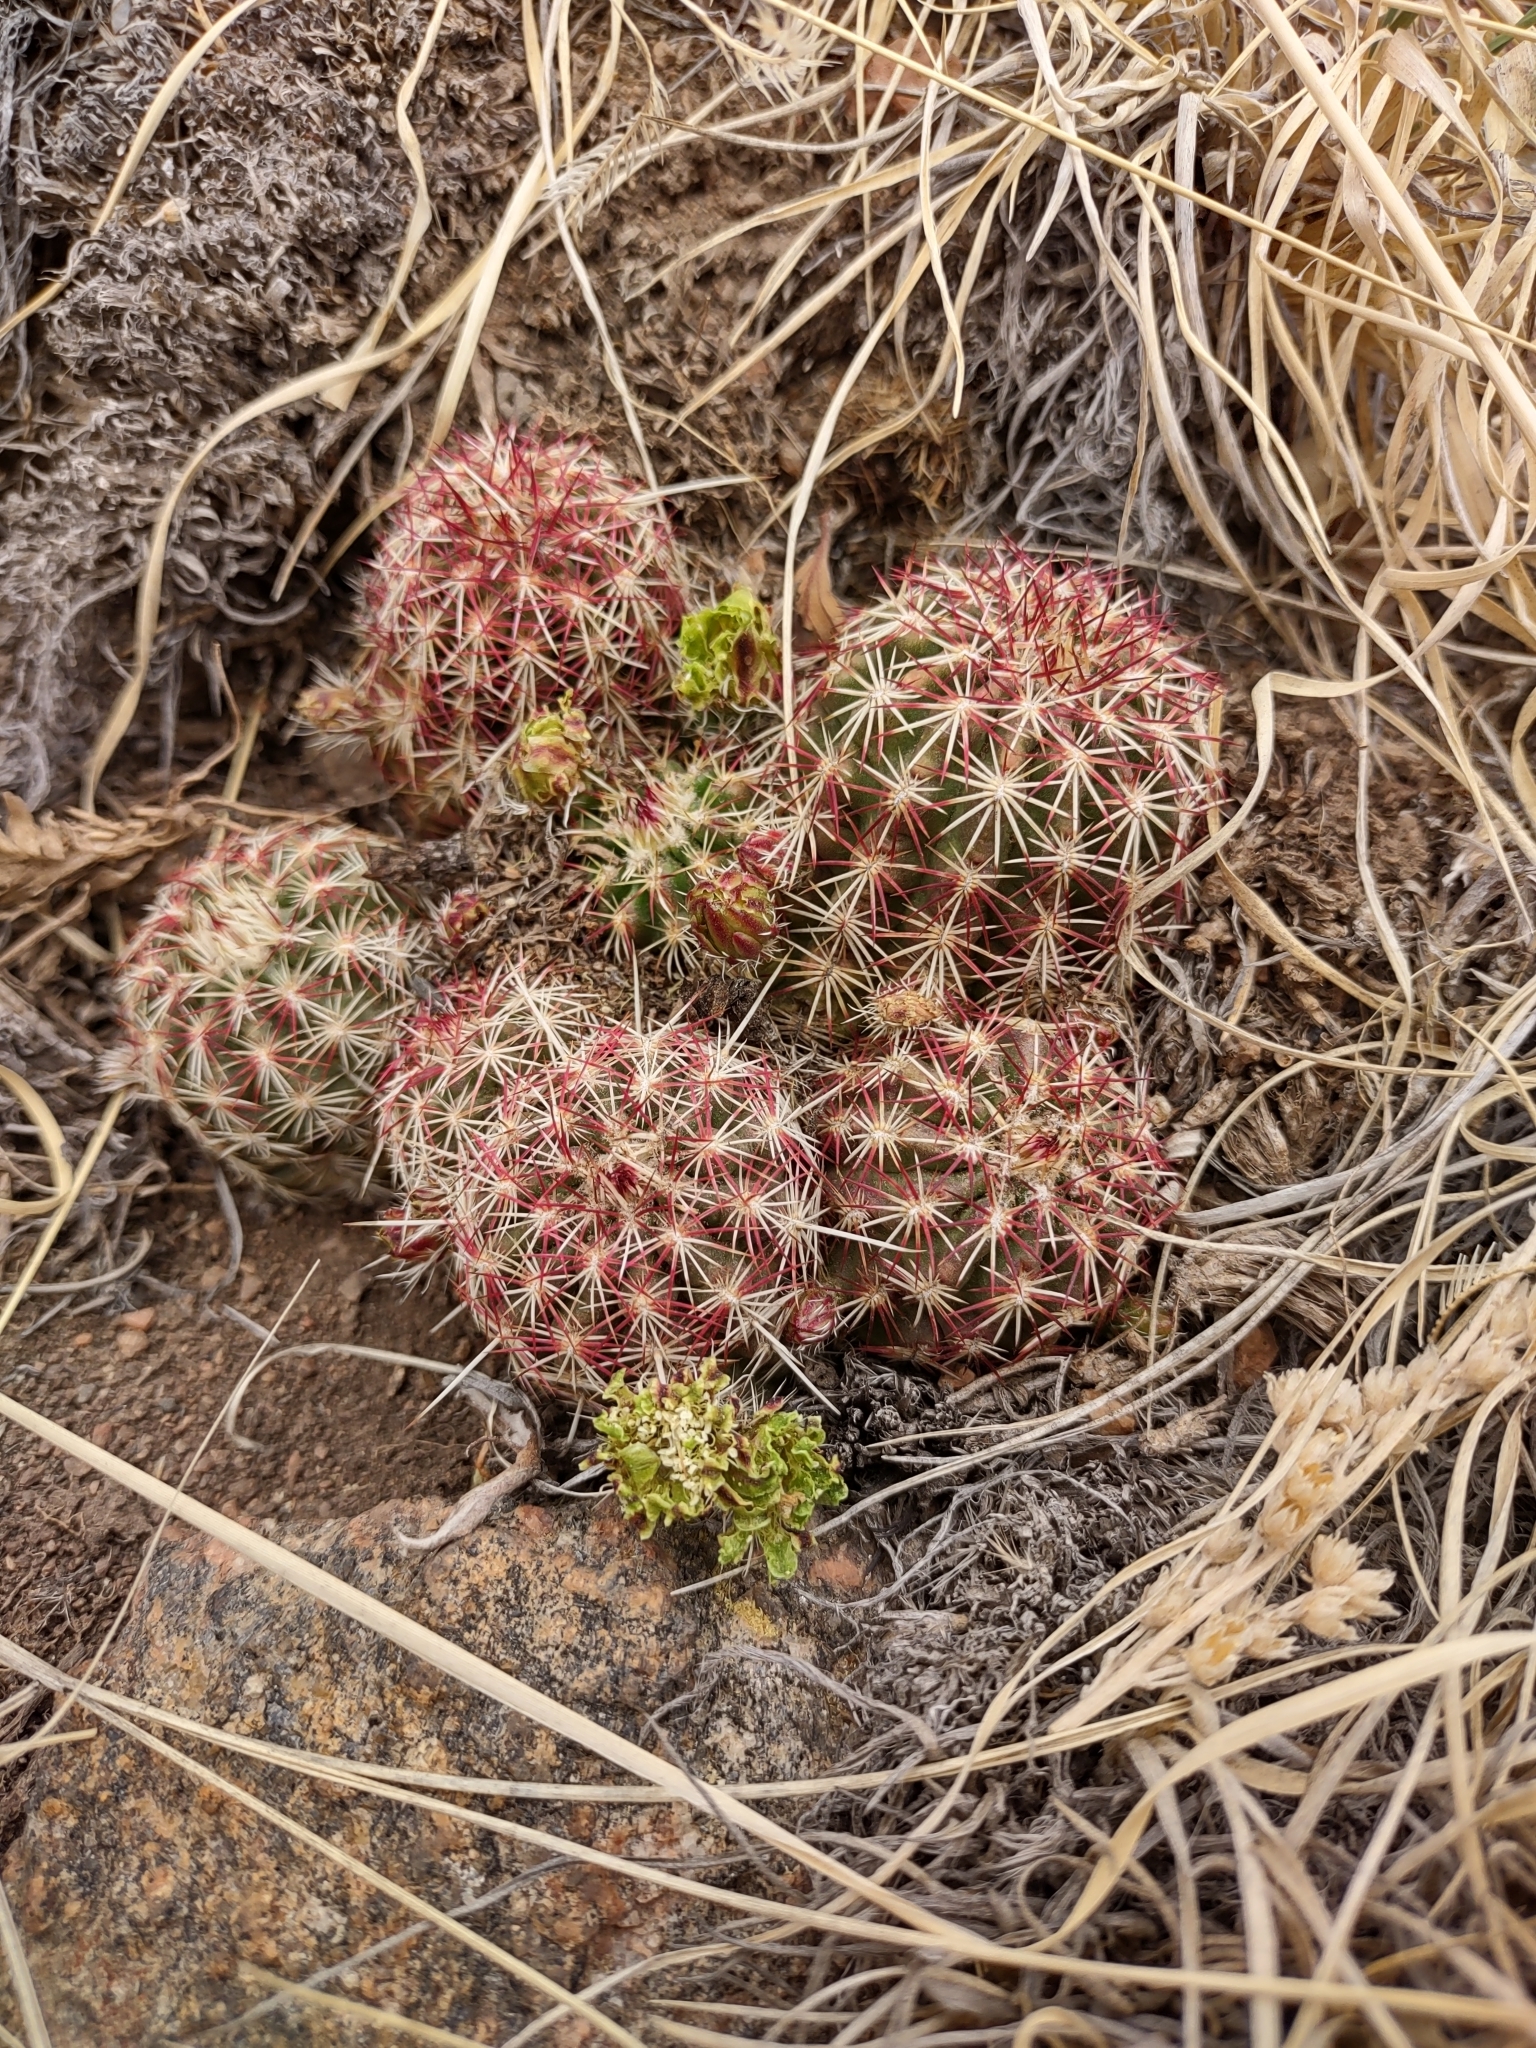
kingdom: Plantae
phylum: Tracheophyta
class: Magnoliopsida
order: Caryophyllales
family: Cactaceae
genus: Echinocereus
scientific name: Echinocereus viridiflorus
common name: Nylon hedgehog cactus
